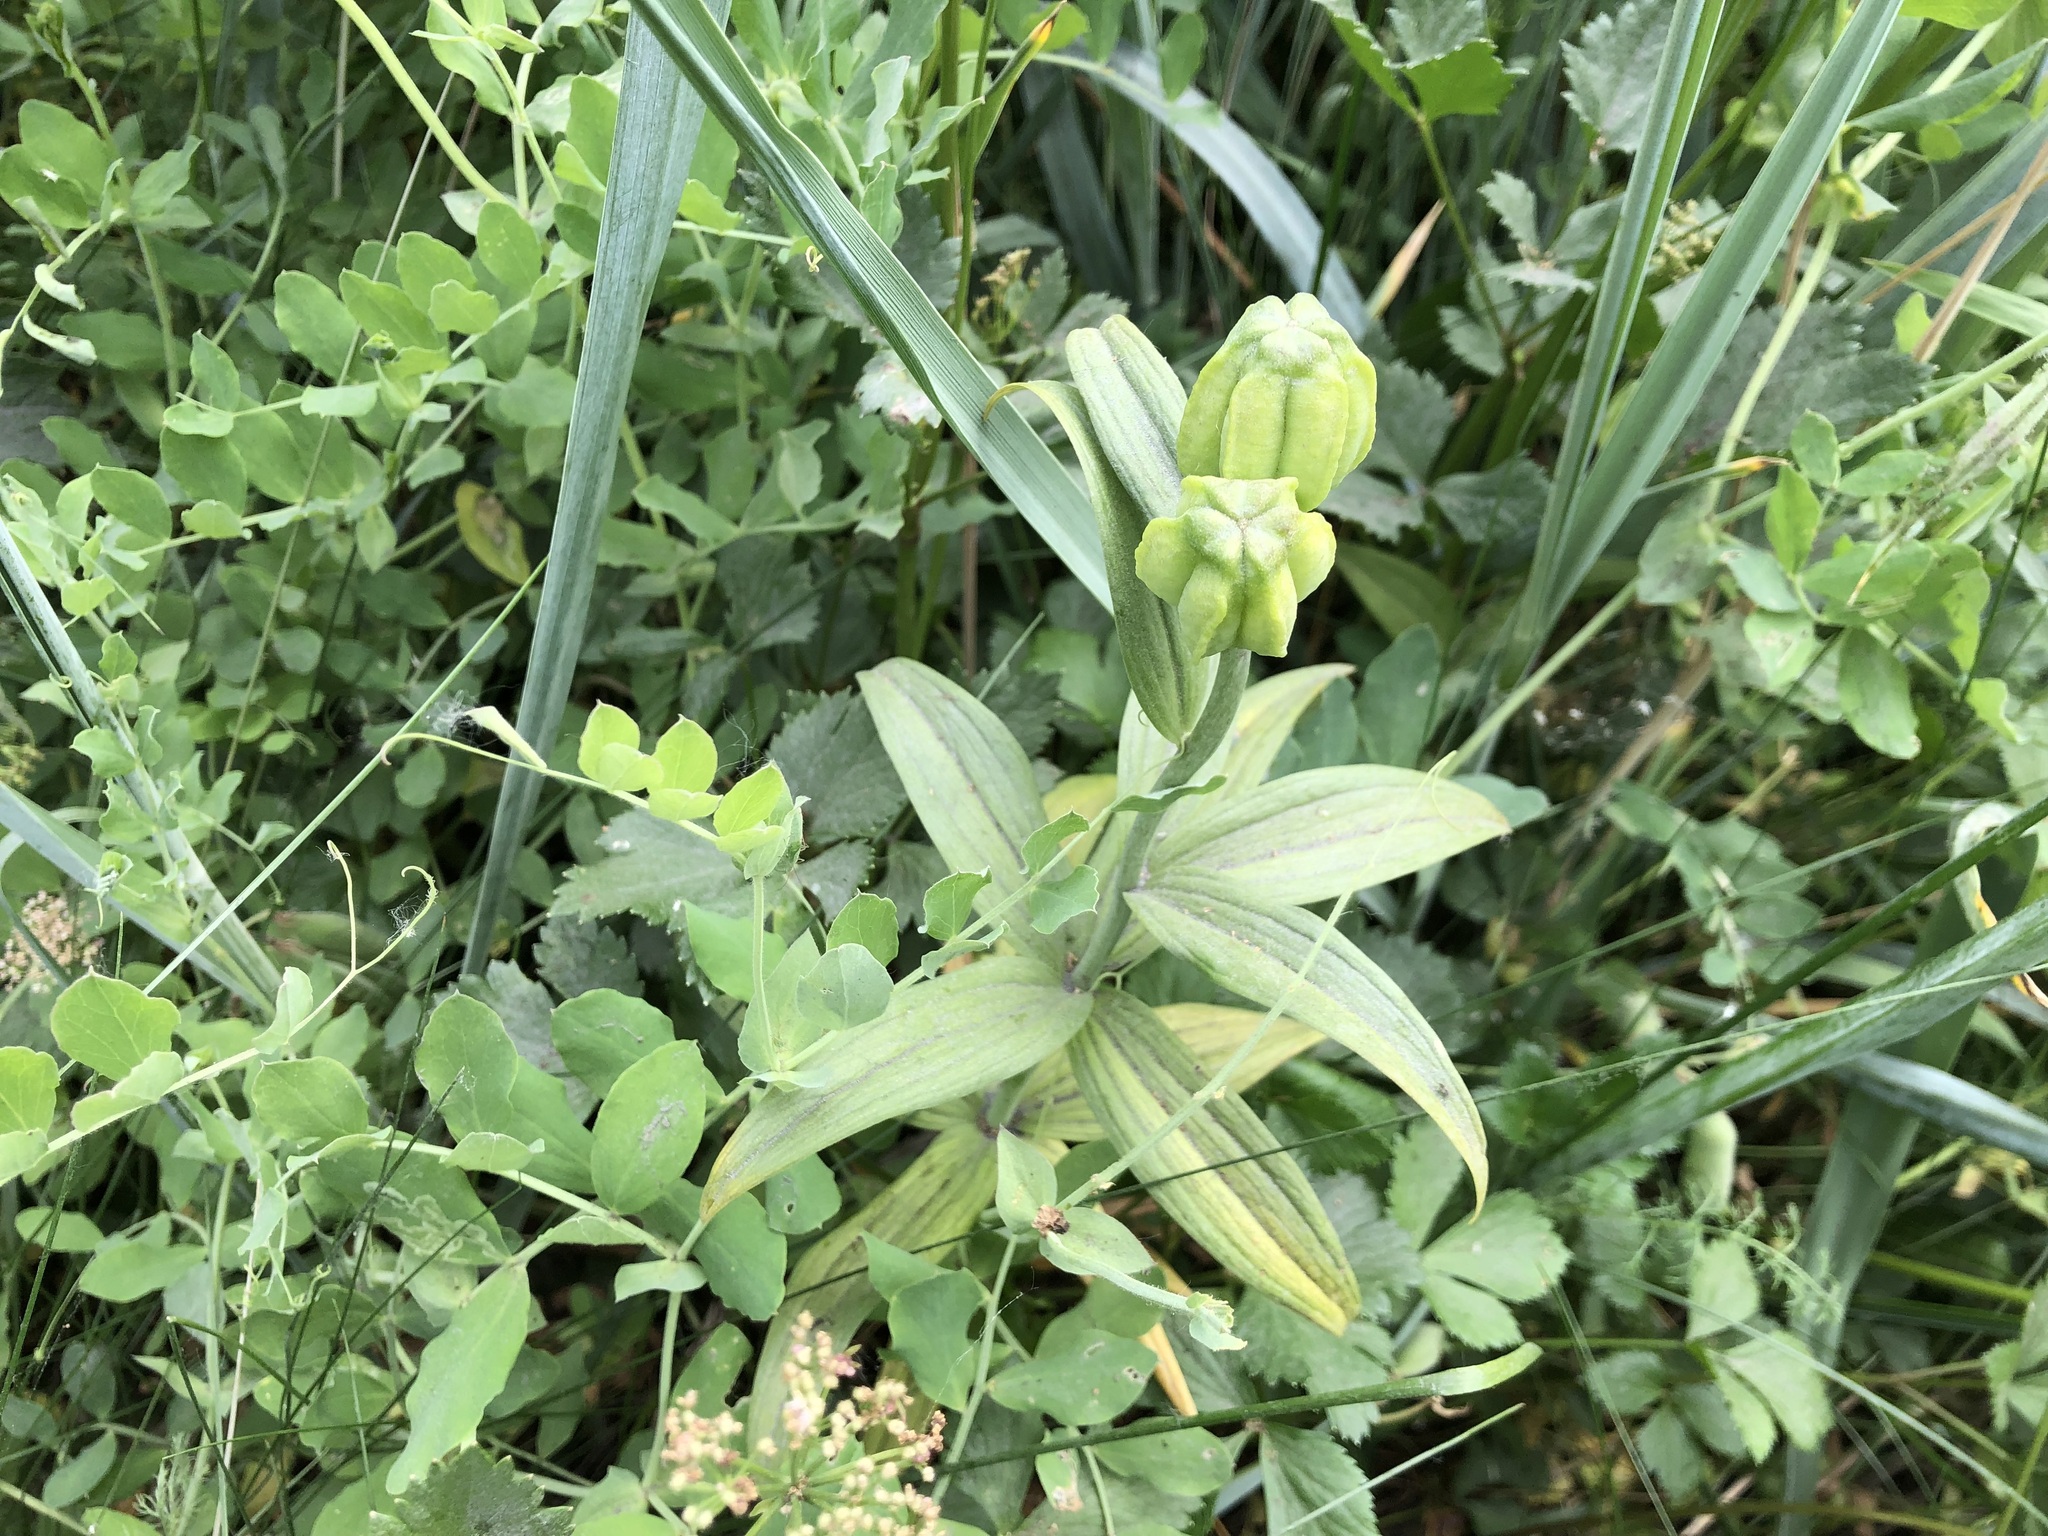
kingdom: Plantae
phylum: Tracheophyta
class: Liliopsida
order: Liliales
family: Liliaceae
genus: Fritillaria
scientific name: Fritillaria camschatcensis
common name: Kamchatka fritillary
